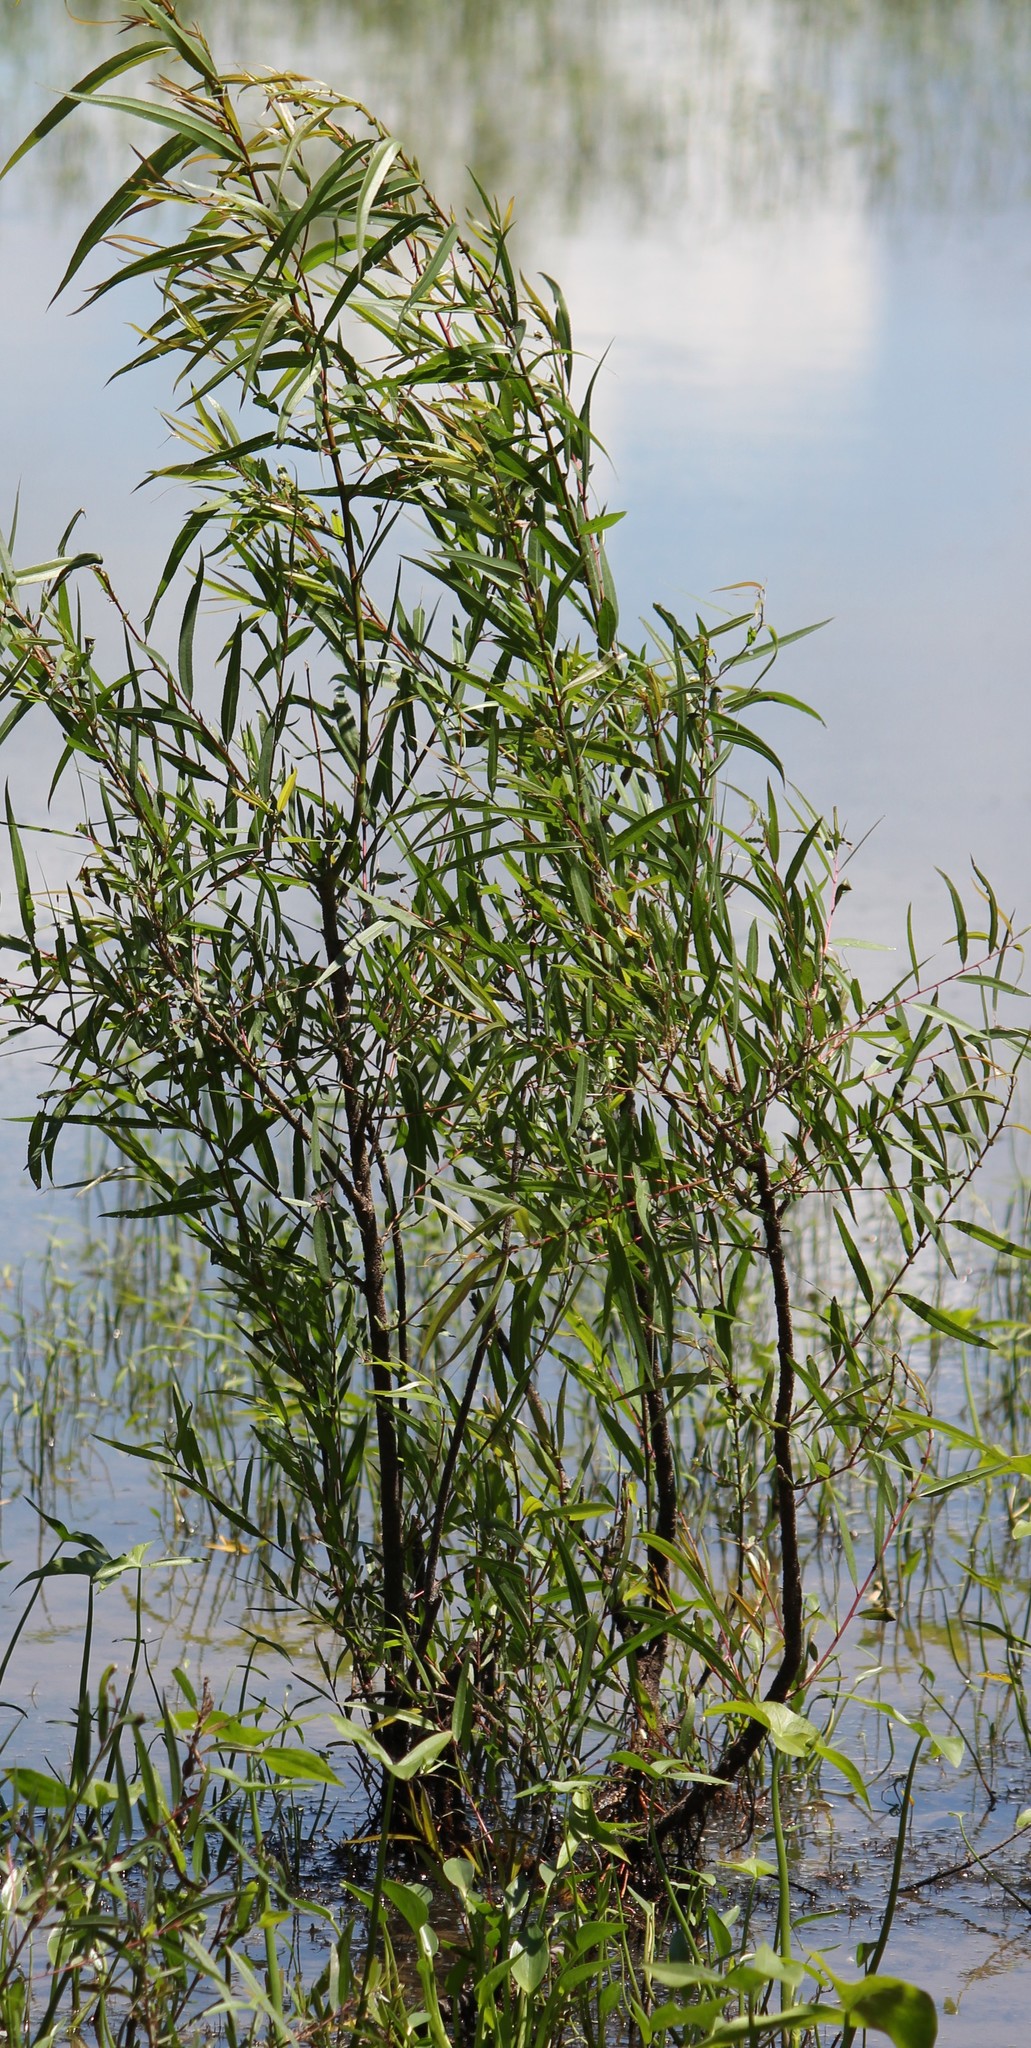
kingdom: Plantae
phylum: Tracheophyta
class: Magnoliopsida
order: Malpighiales
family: Salicaceae
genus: Salix
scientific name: Salix nigra
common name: Black willow
